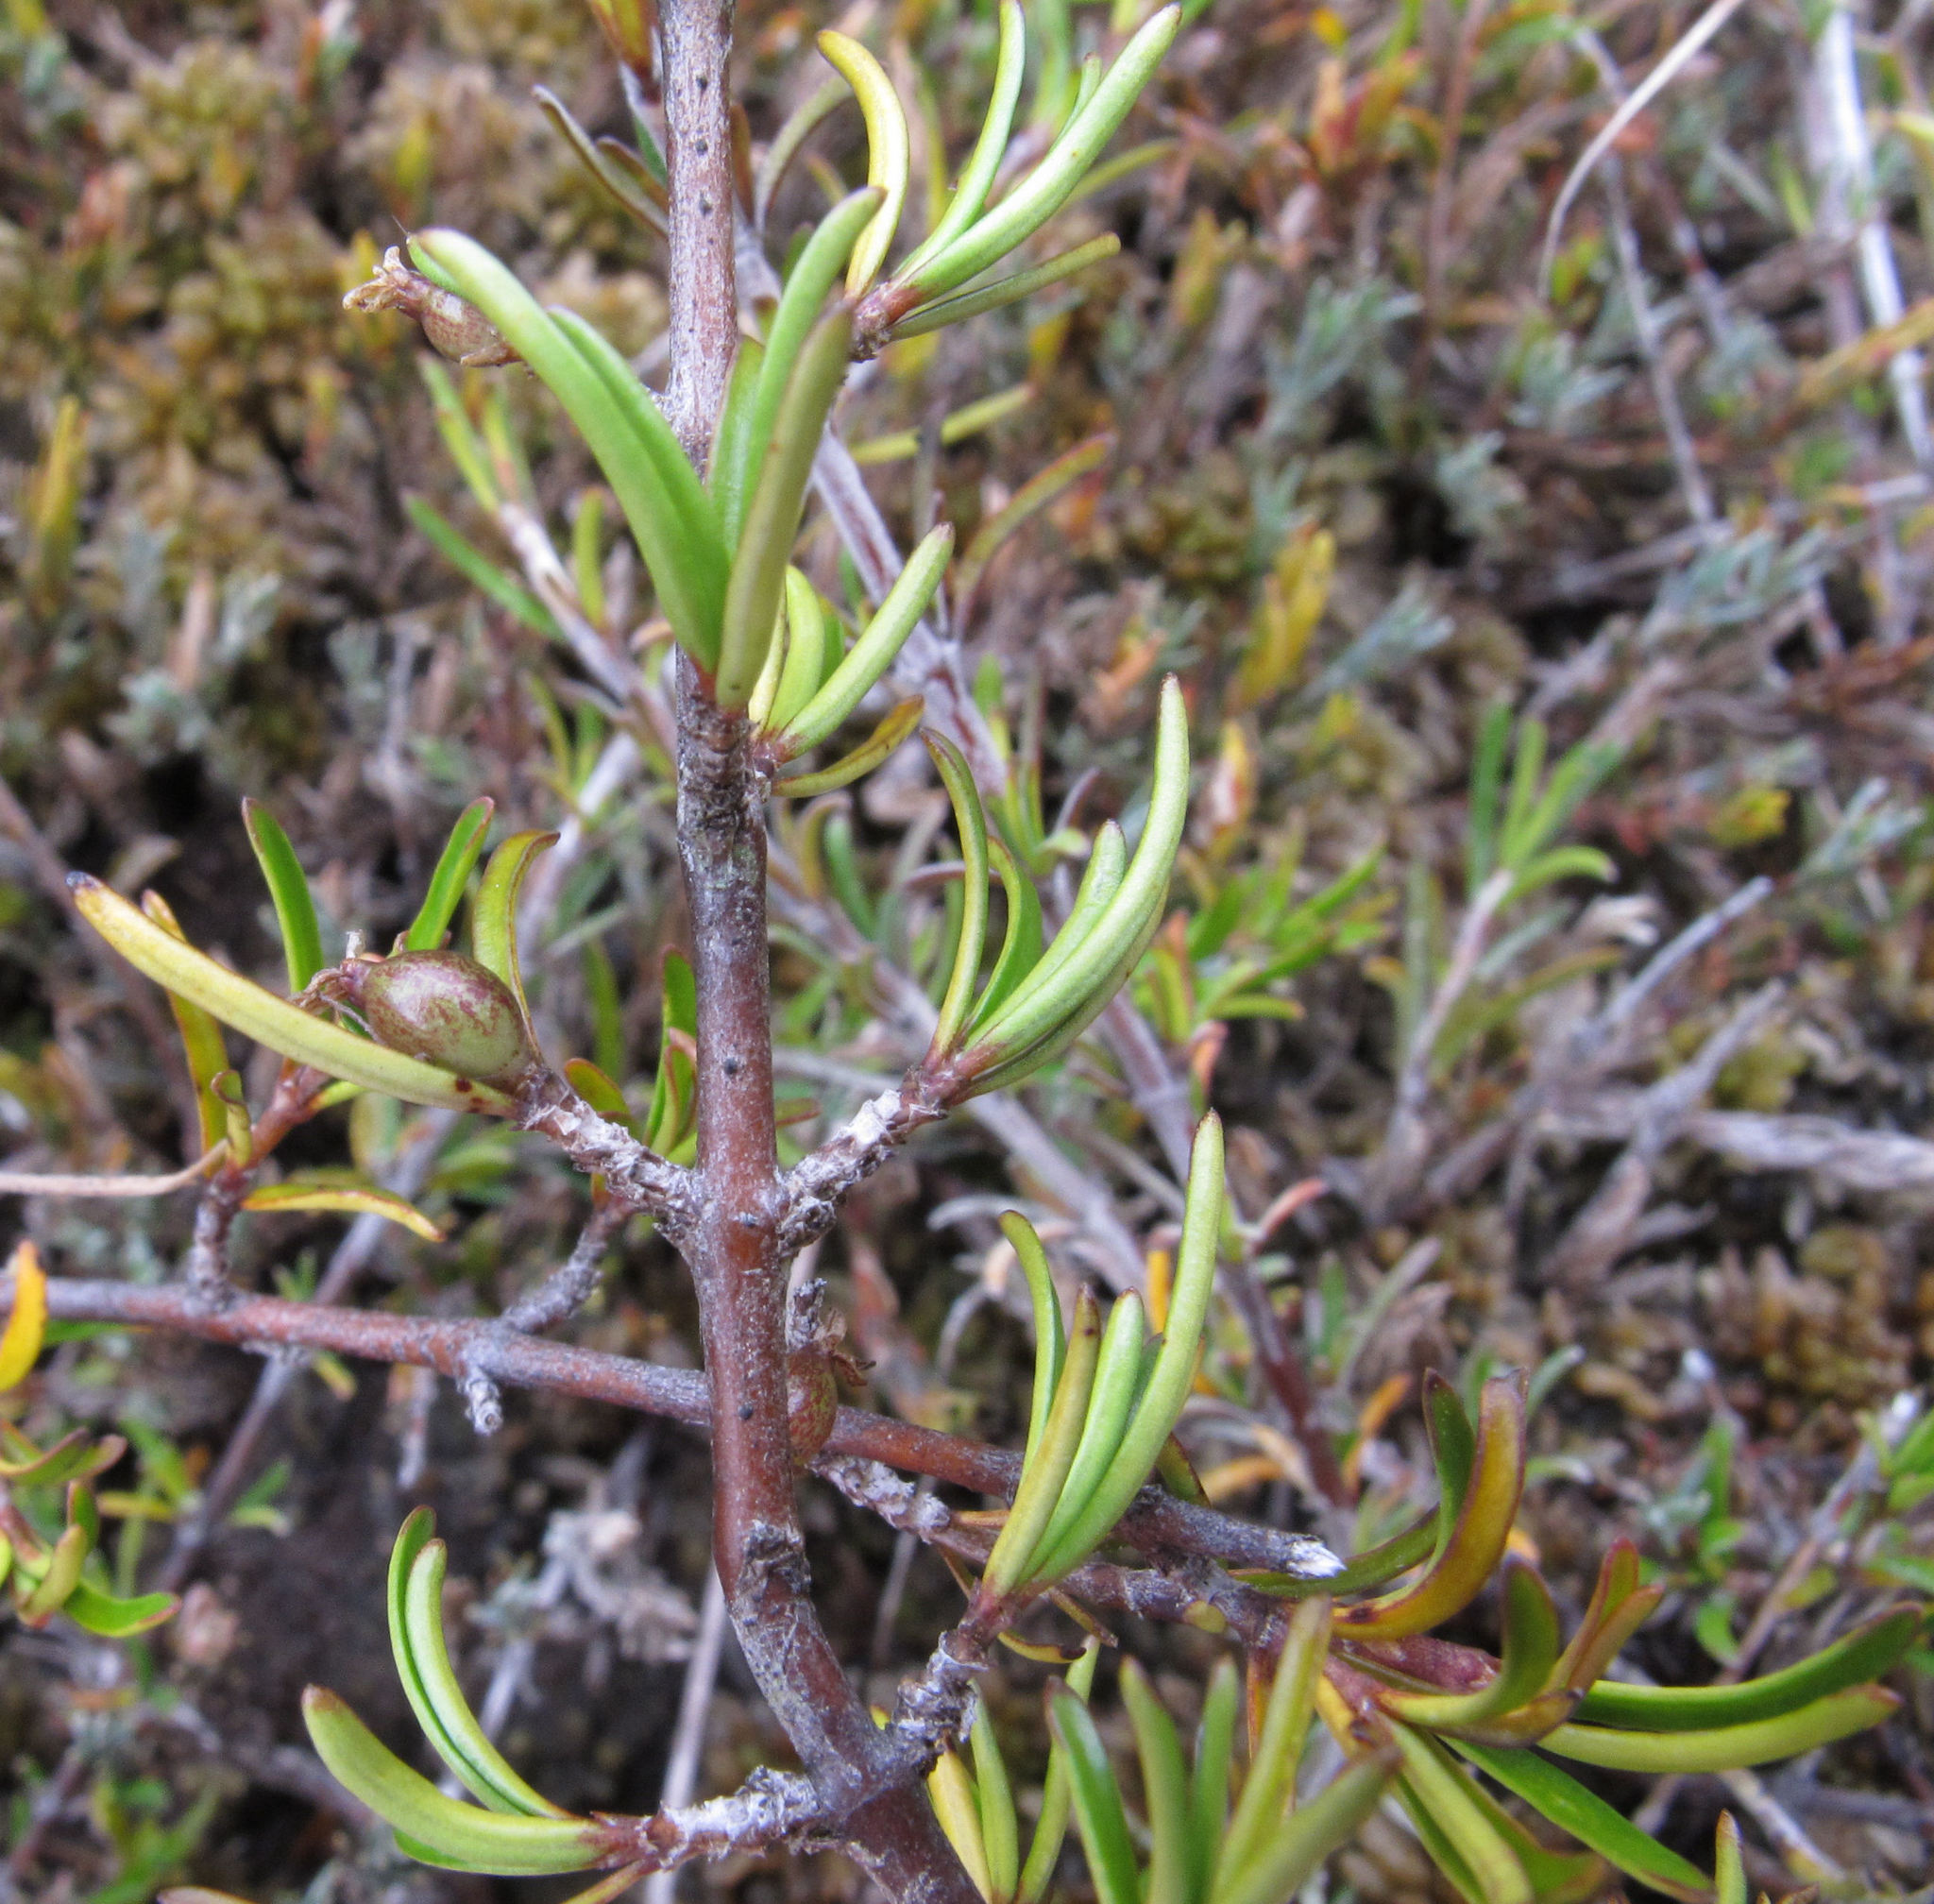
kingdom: Plantae
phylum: Tracheophyta
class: Magnoliopsida
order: Gentianales
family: Rubiaceae
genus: Coprosma
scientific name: Coprosma elatirioides
